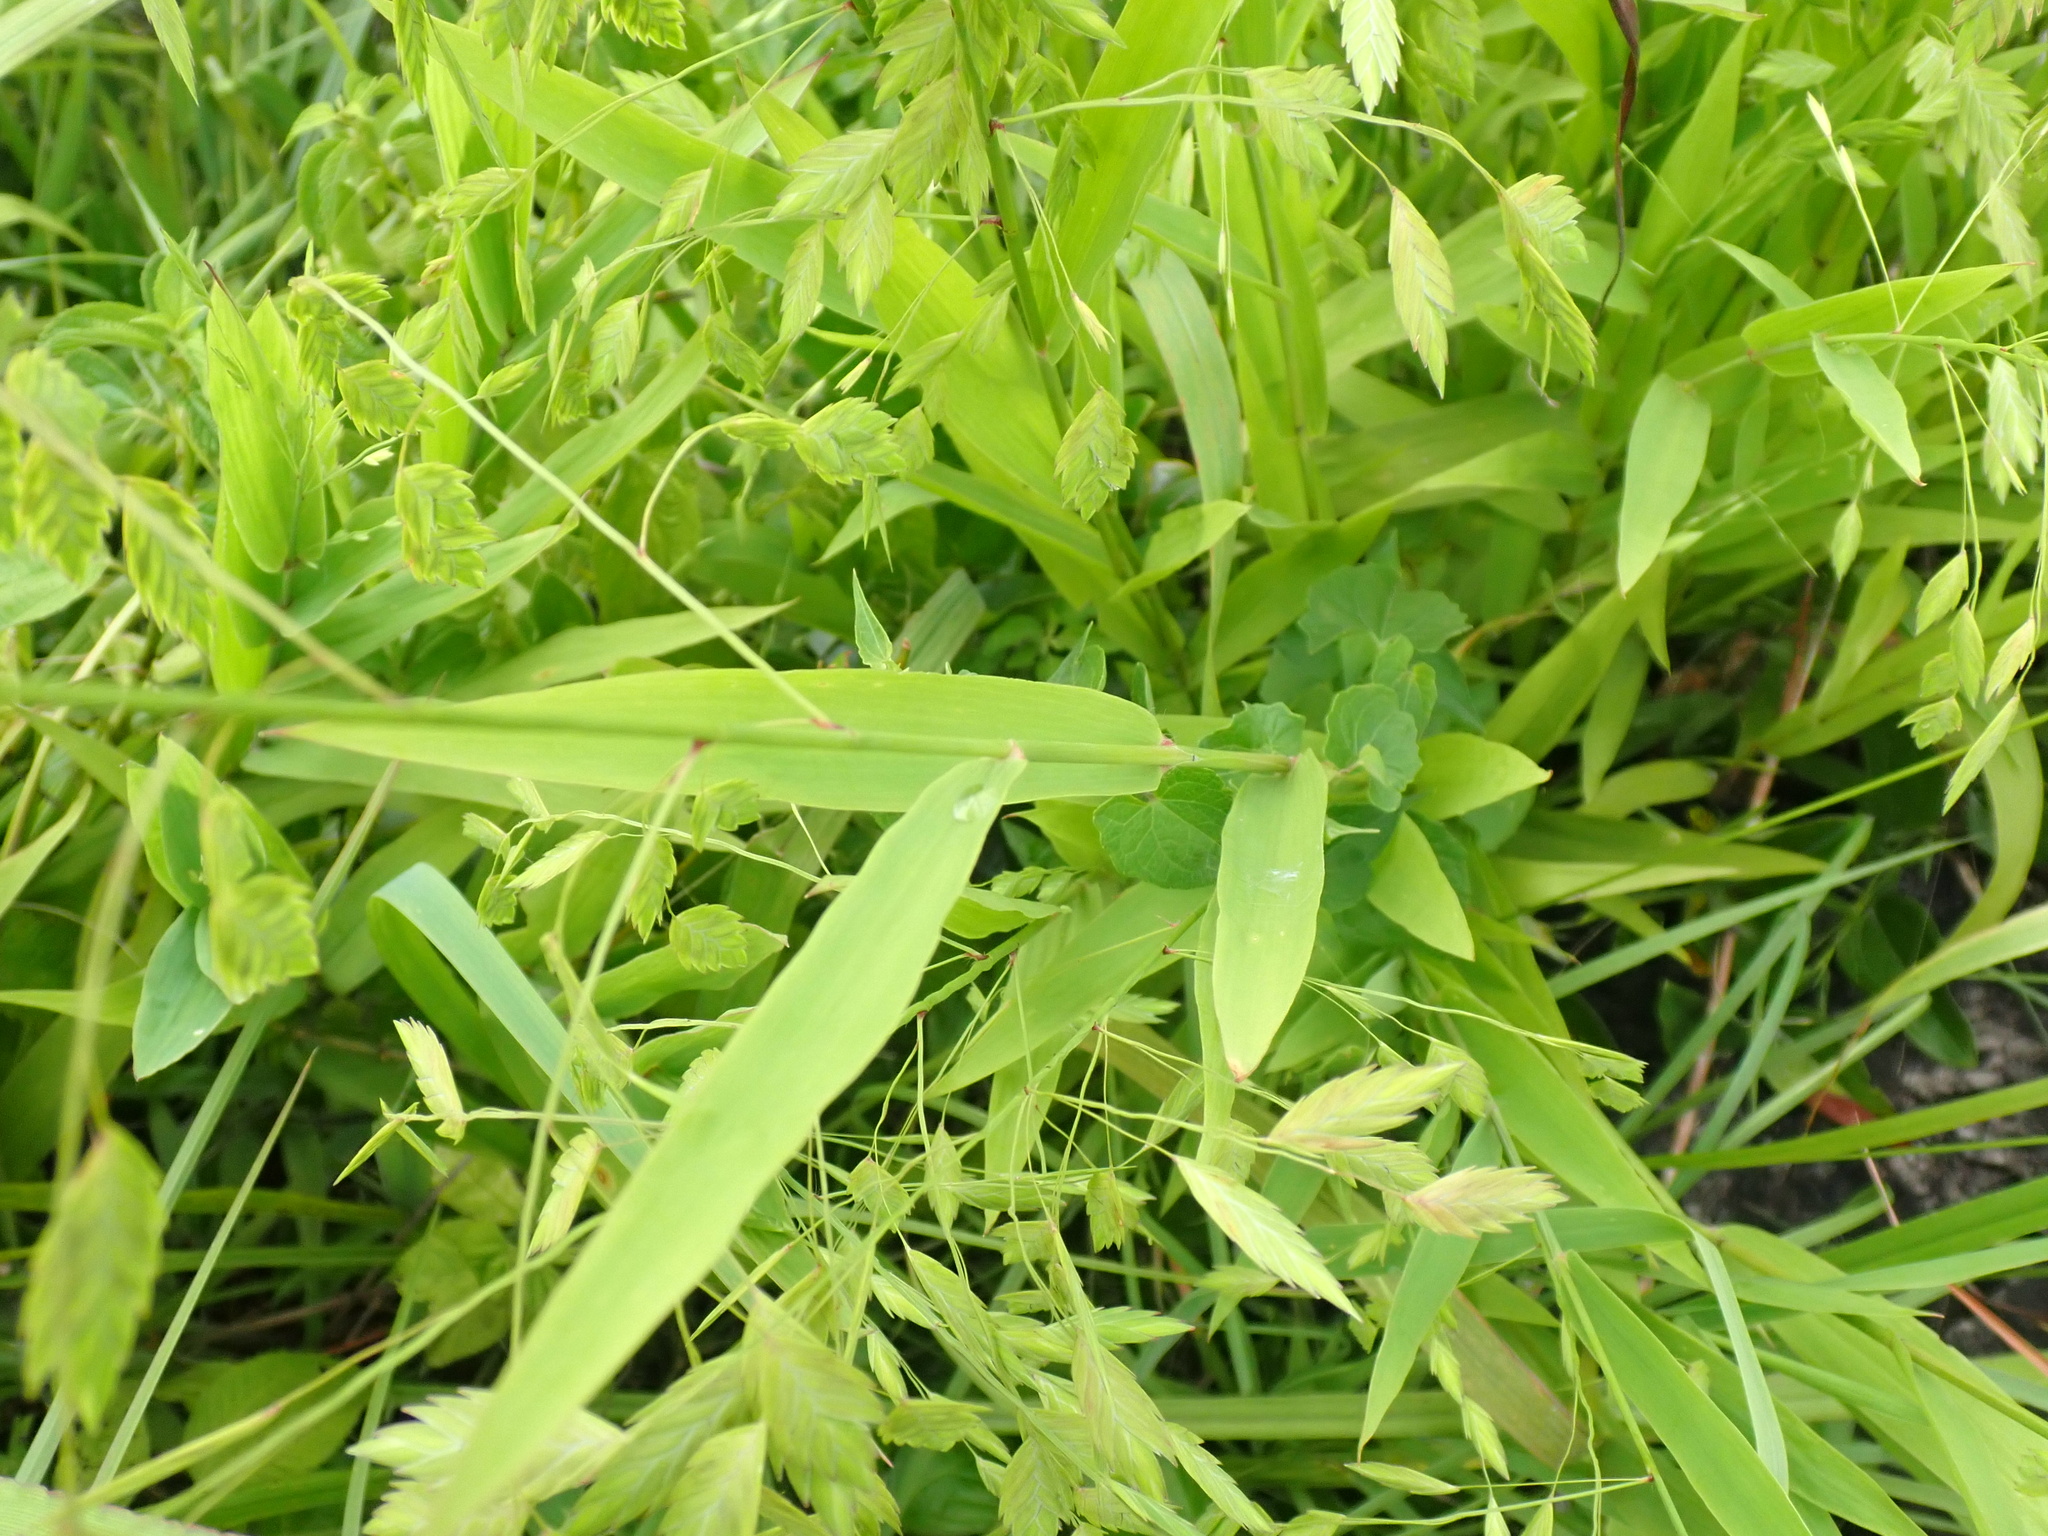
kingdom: Plantae
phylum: Tracheophyta
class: Liliopsida
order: Poales
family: Poaceae
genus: Chasmanthium
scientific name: Chasmanthium latifolium
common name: Broad-leaved chasmanthium
